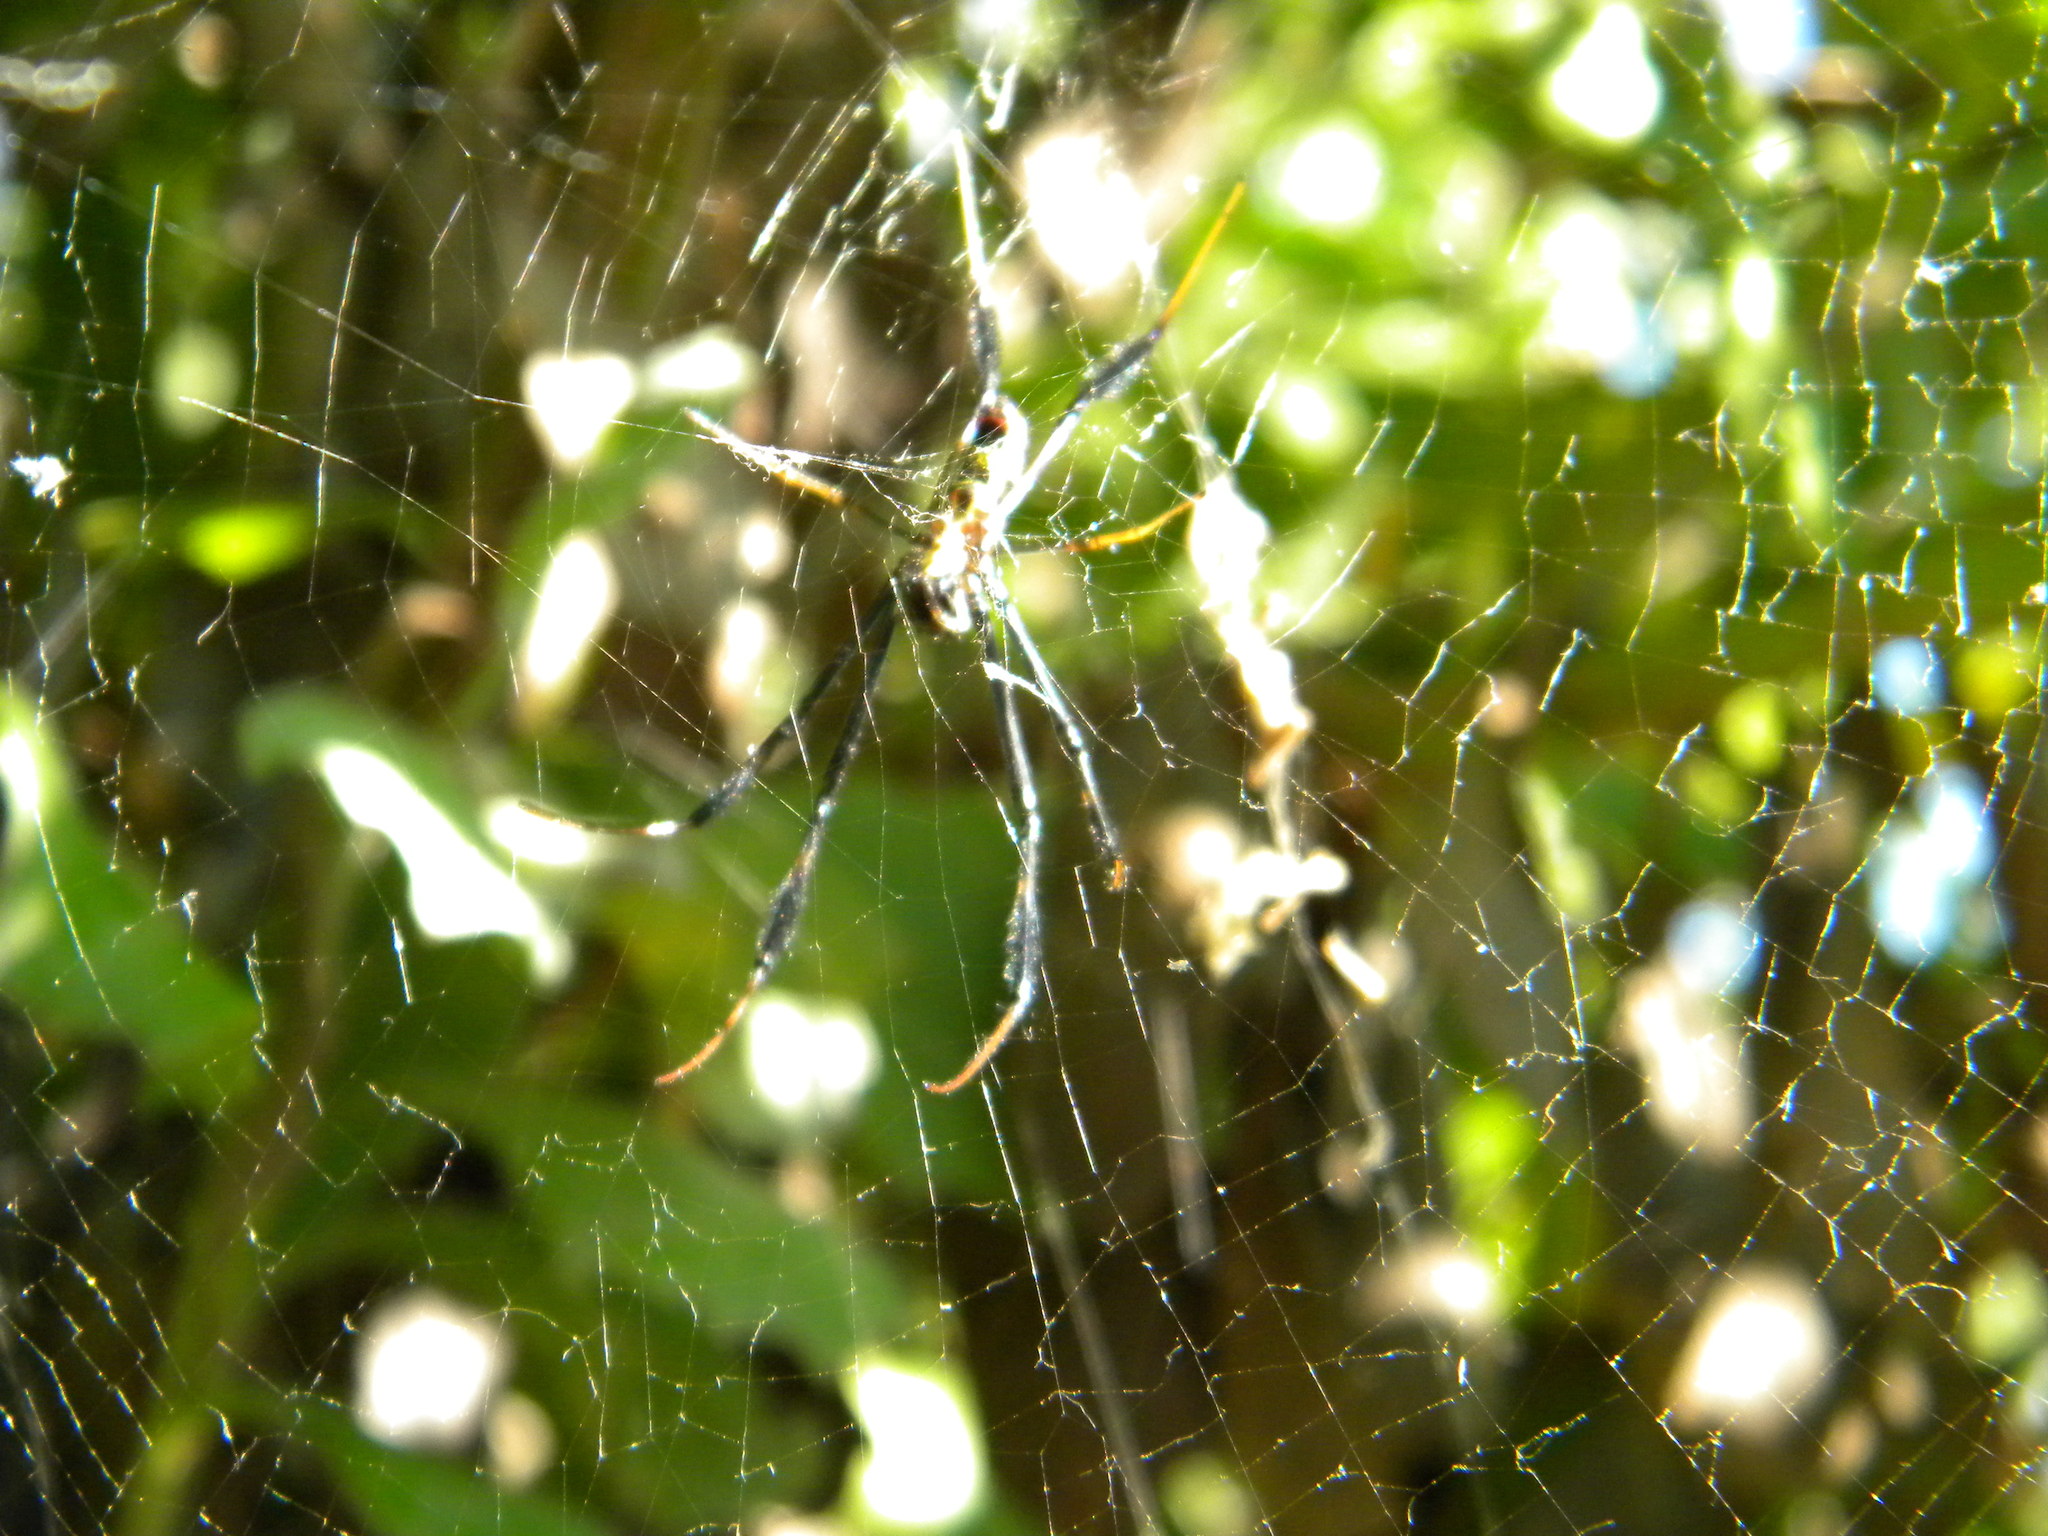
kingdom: Animalia
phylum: Arthropoda
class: Arachnida
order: Araneae
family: Araneidae
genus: Trichonephila
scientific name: Trichonephila fenestrata
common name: Hairy golden orb weaver
